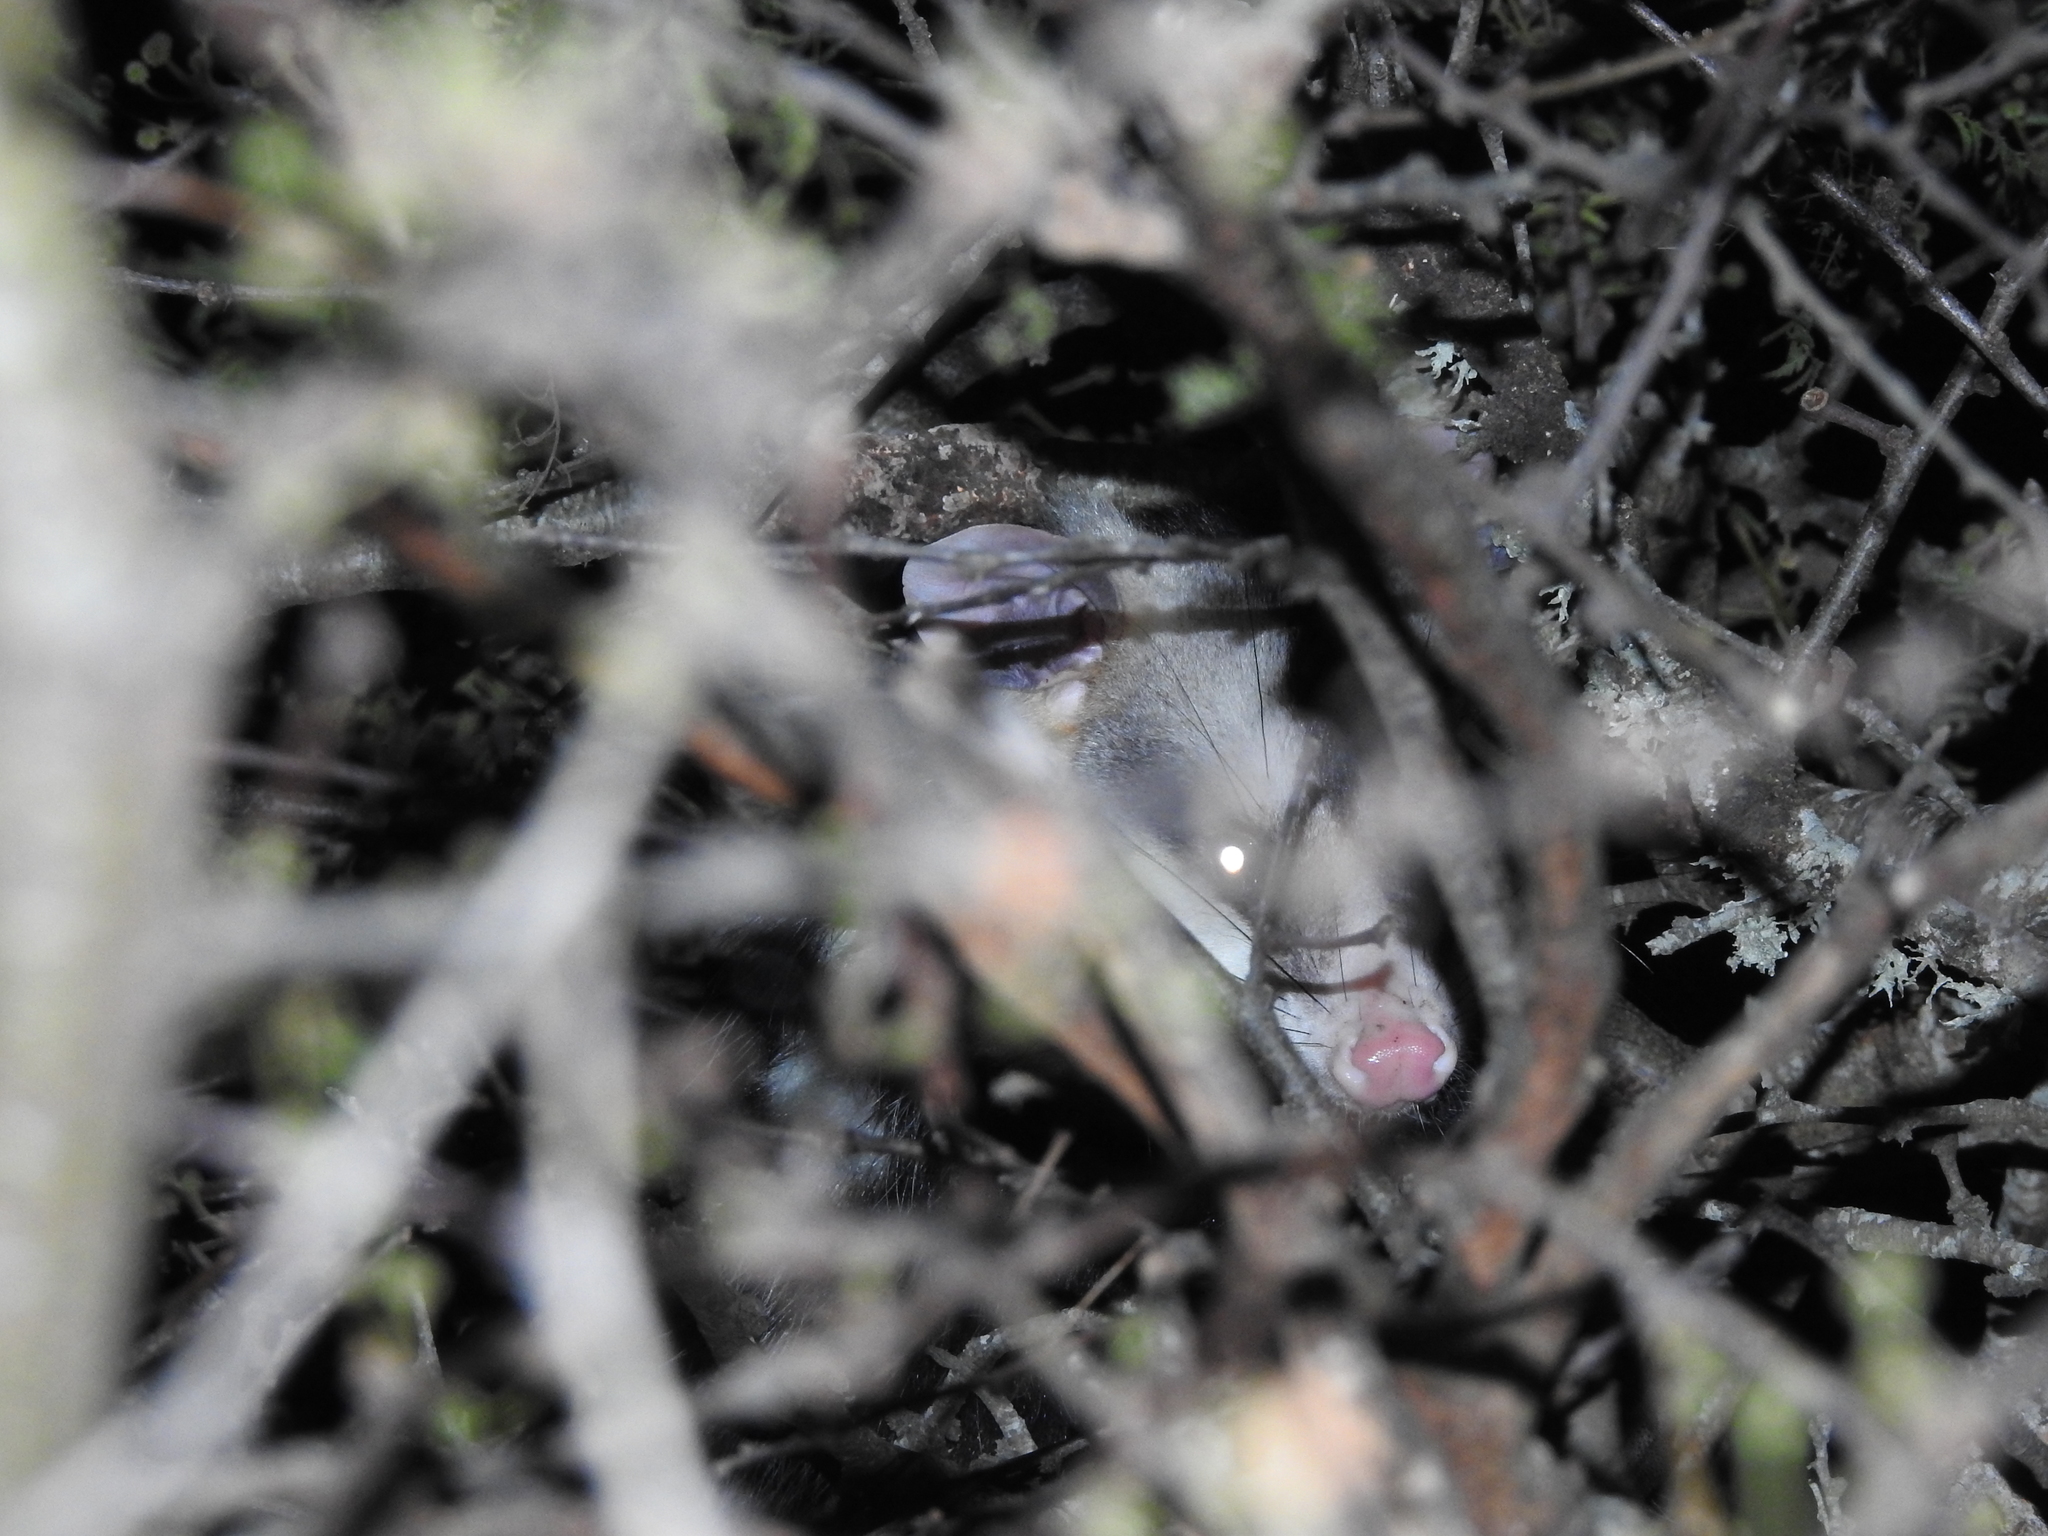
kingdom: Animalia
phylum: Chordata
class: Mammalia
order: Didelphimorphia
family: Didelphidae
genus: Didelphis
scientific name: Didelphis albiventris
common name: White-eared opossum
